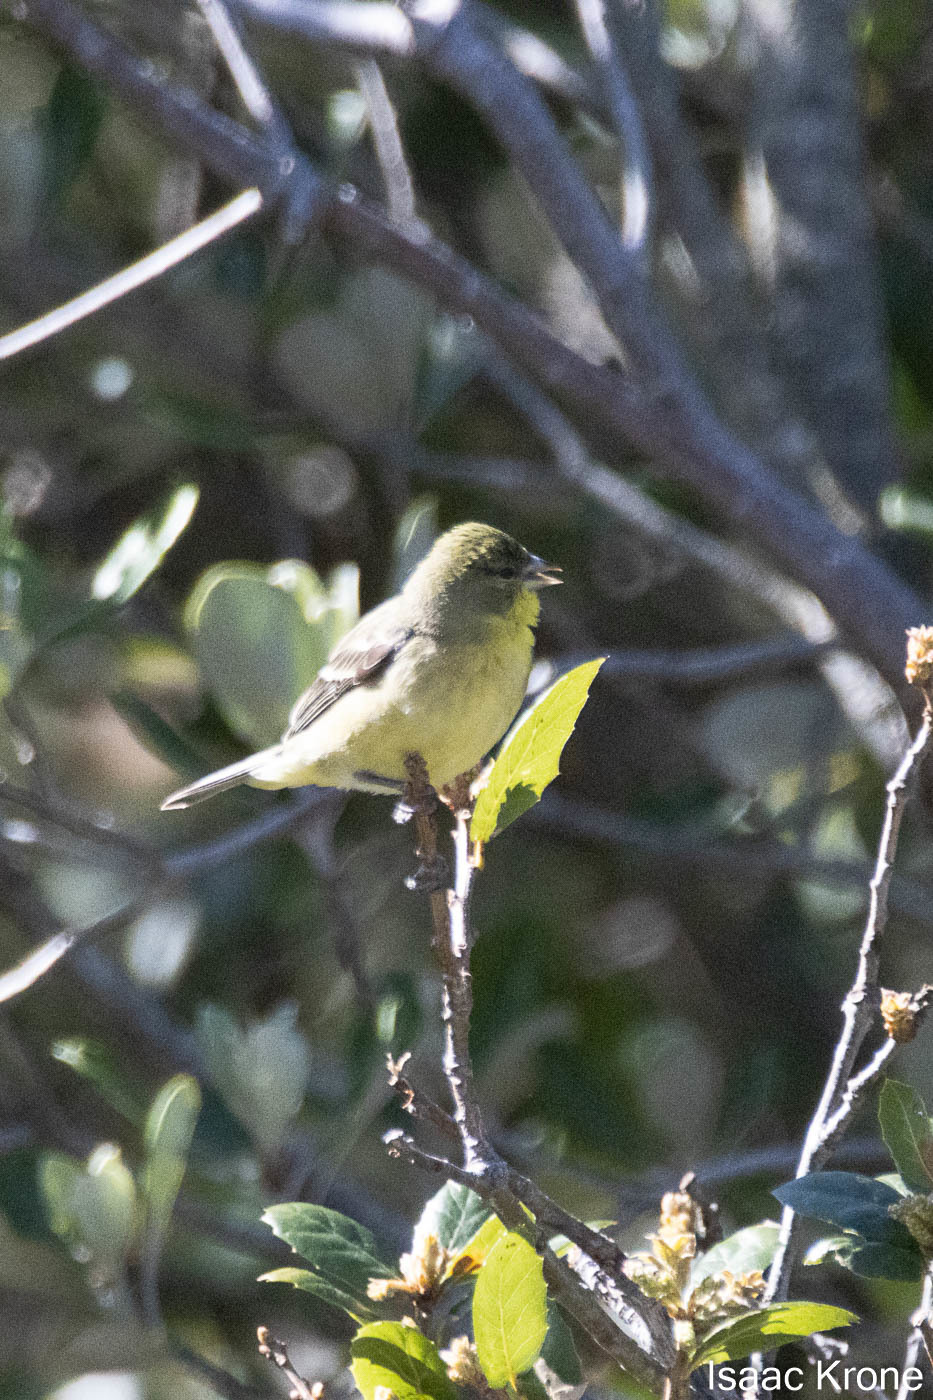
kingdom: Animalia
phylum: Chordata
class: Aves
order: Passeriformes
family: Fringillidae
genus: Spinus
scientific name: Spinus psaltria
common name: Lesser goldfinch
